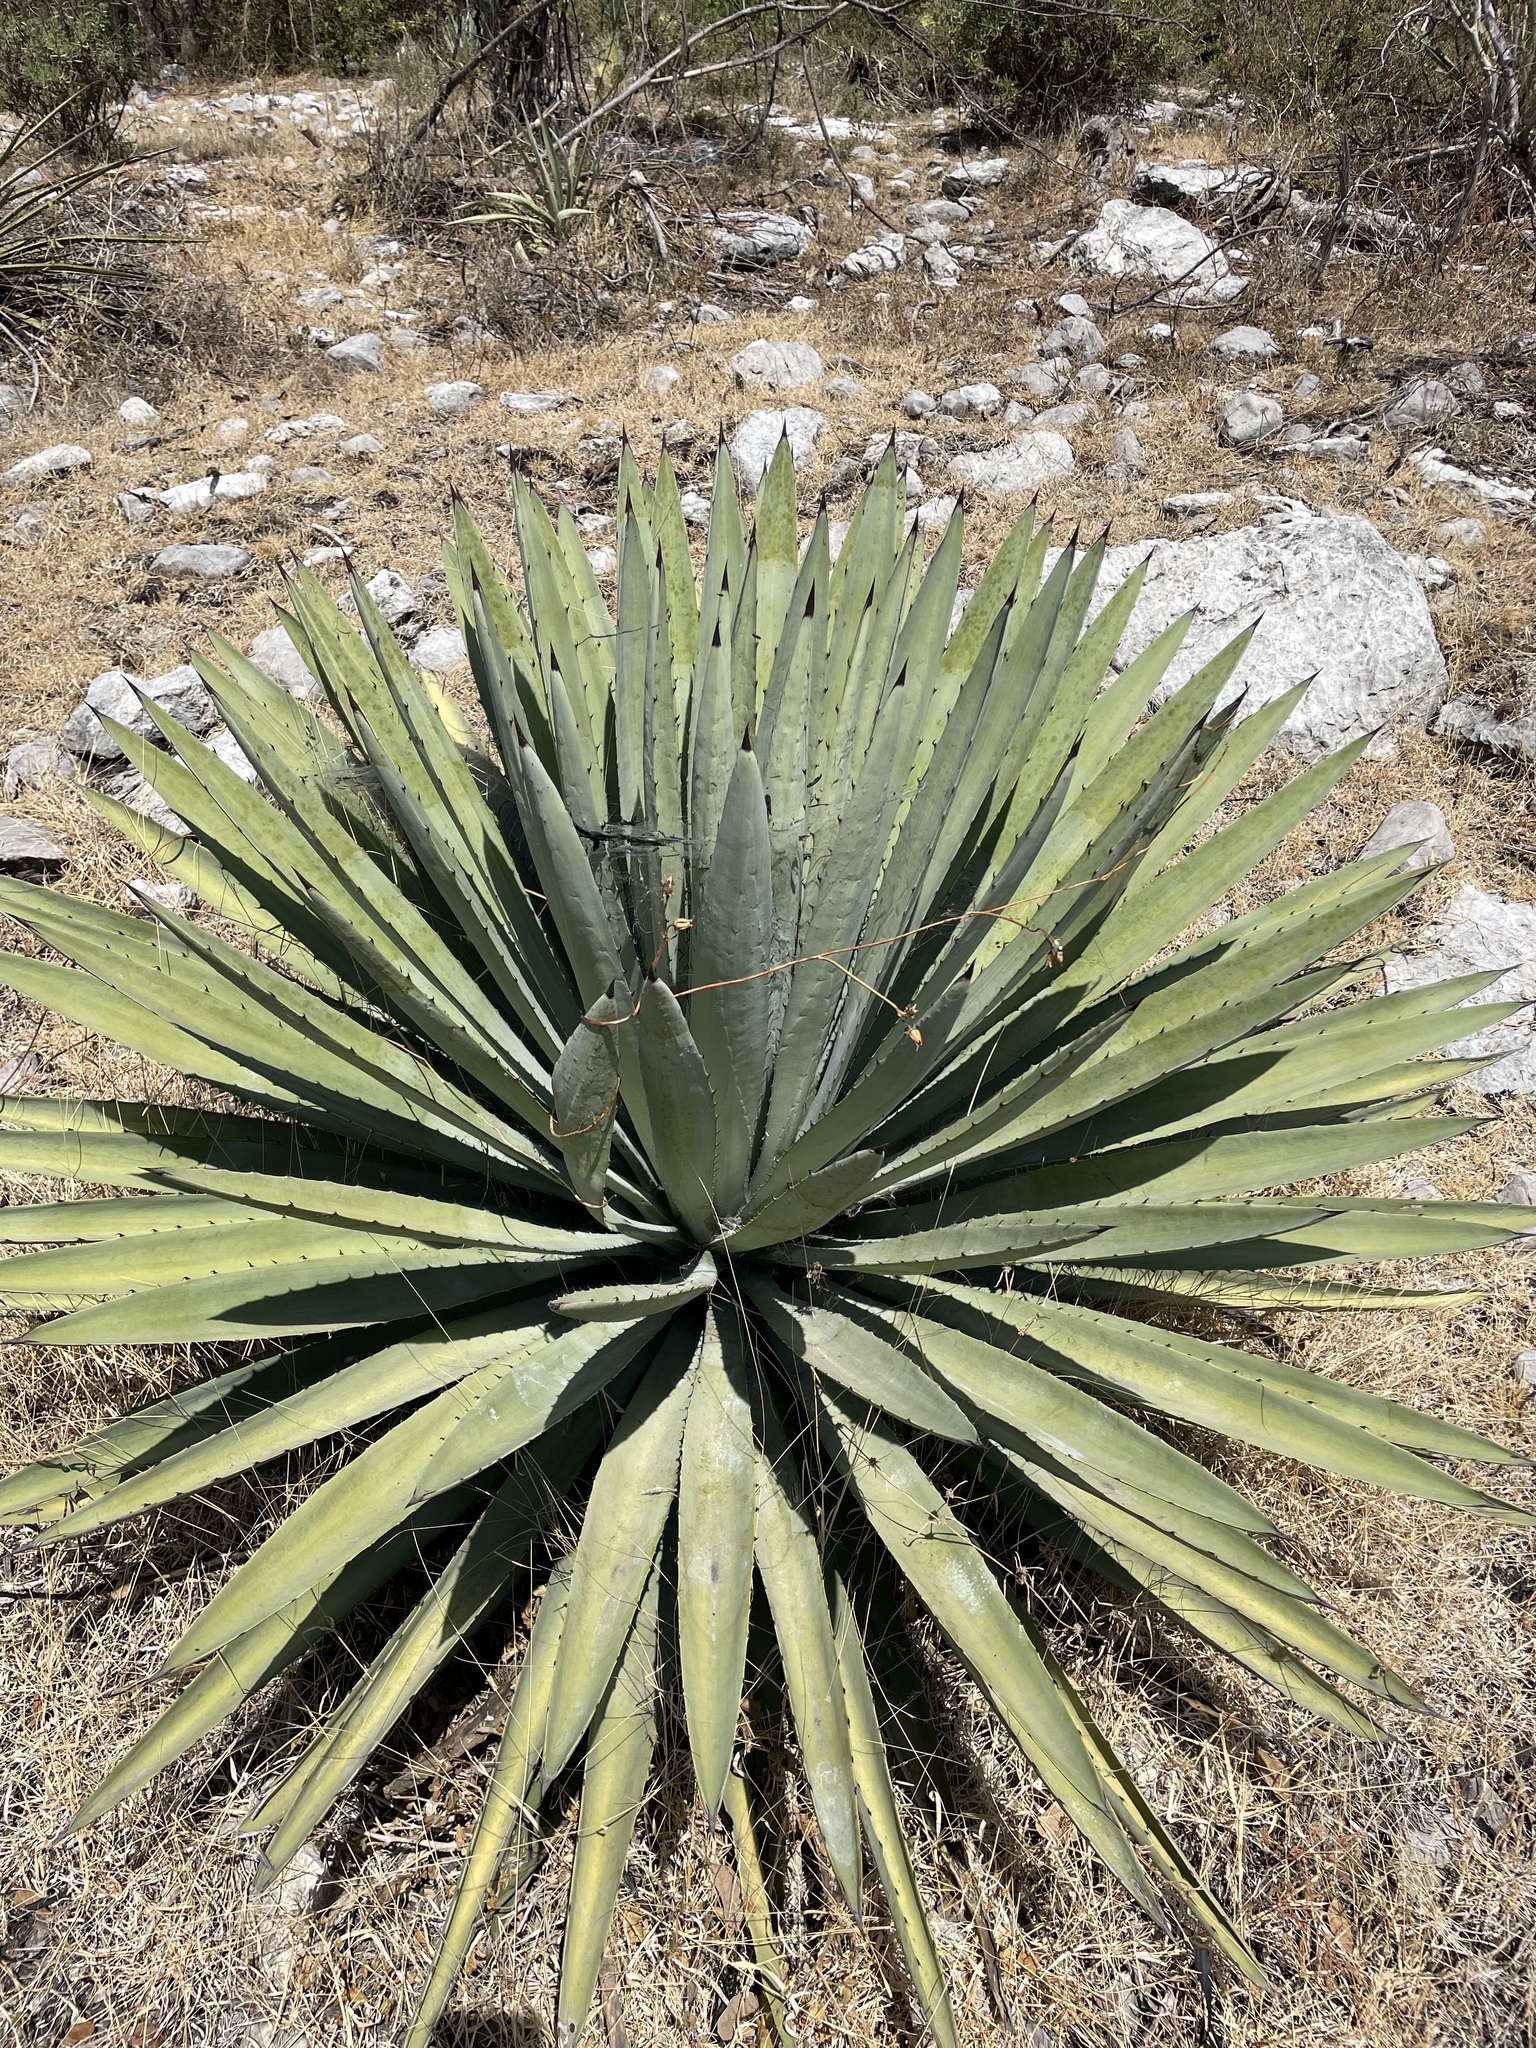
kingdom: Plantae
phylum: Tracheophyta
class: Liliopsida
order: Asparagales
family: Asparagaceae
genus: Agave
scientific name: Agave collina
